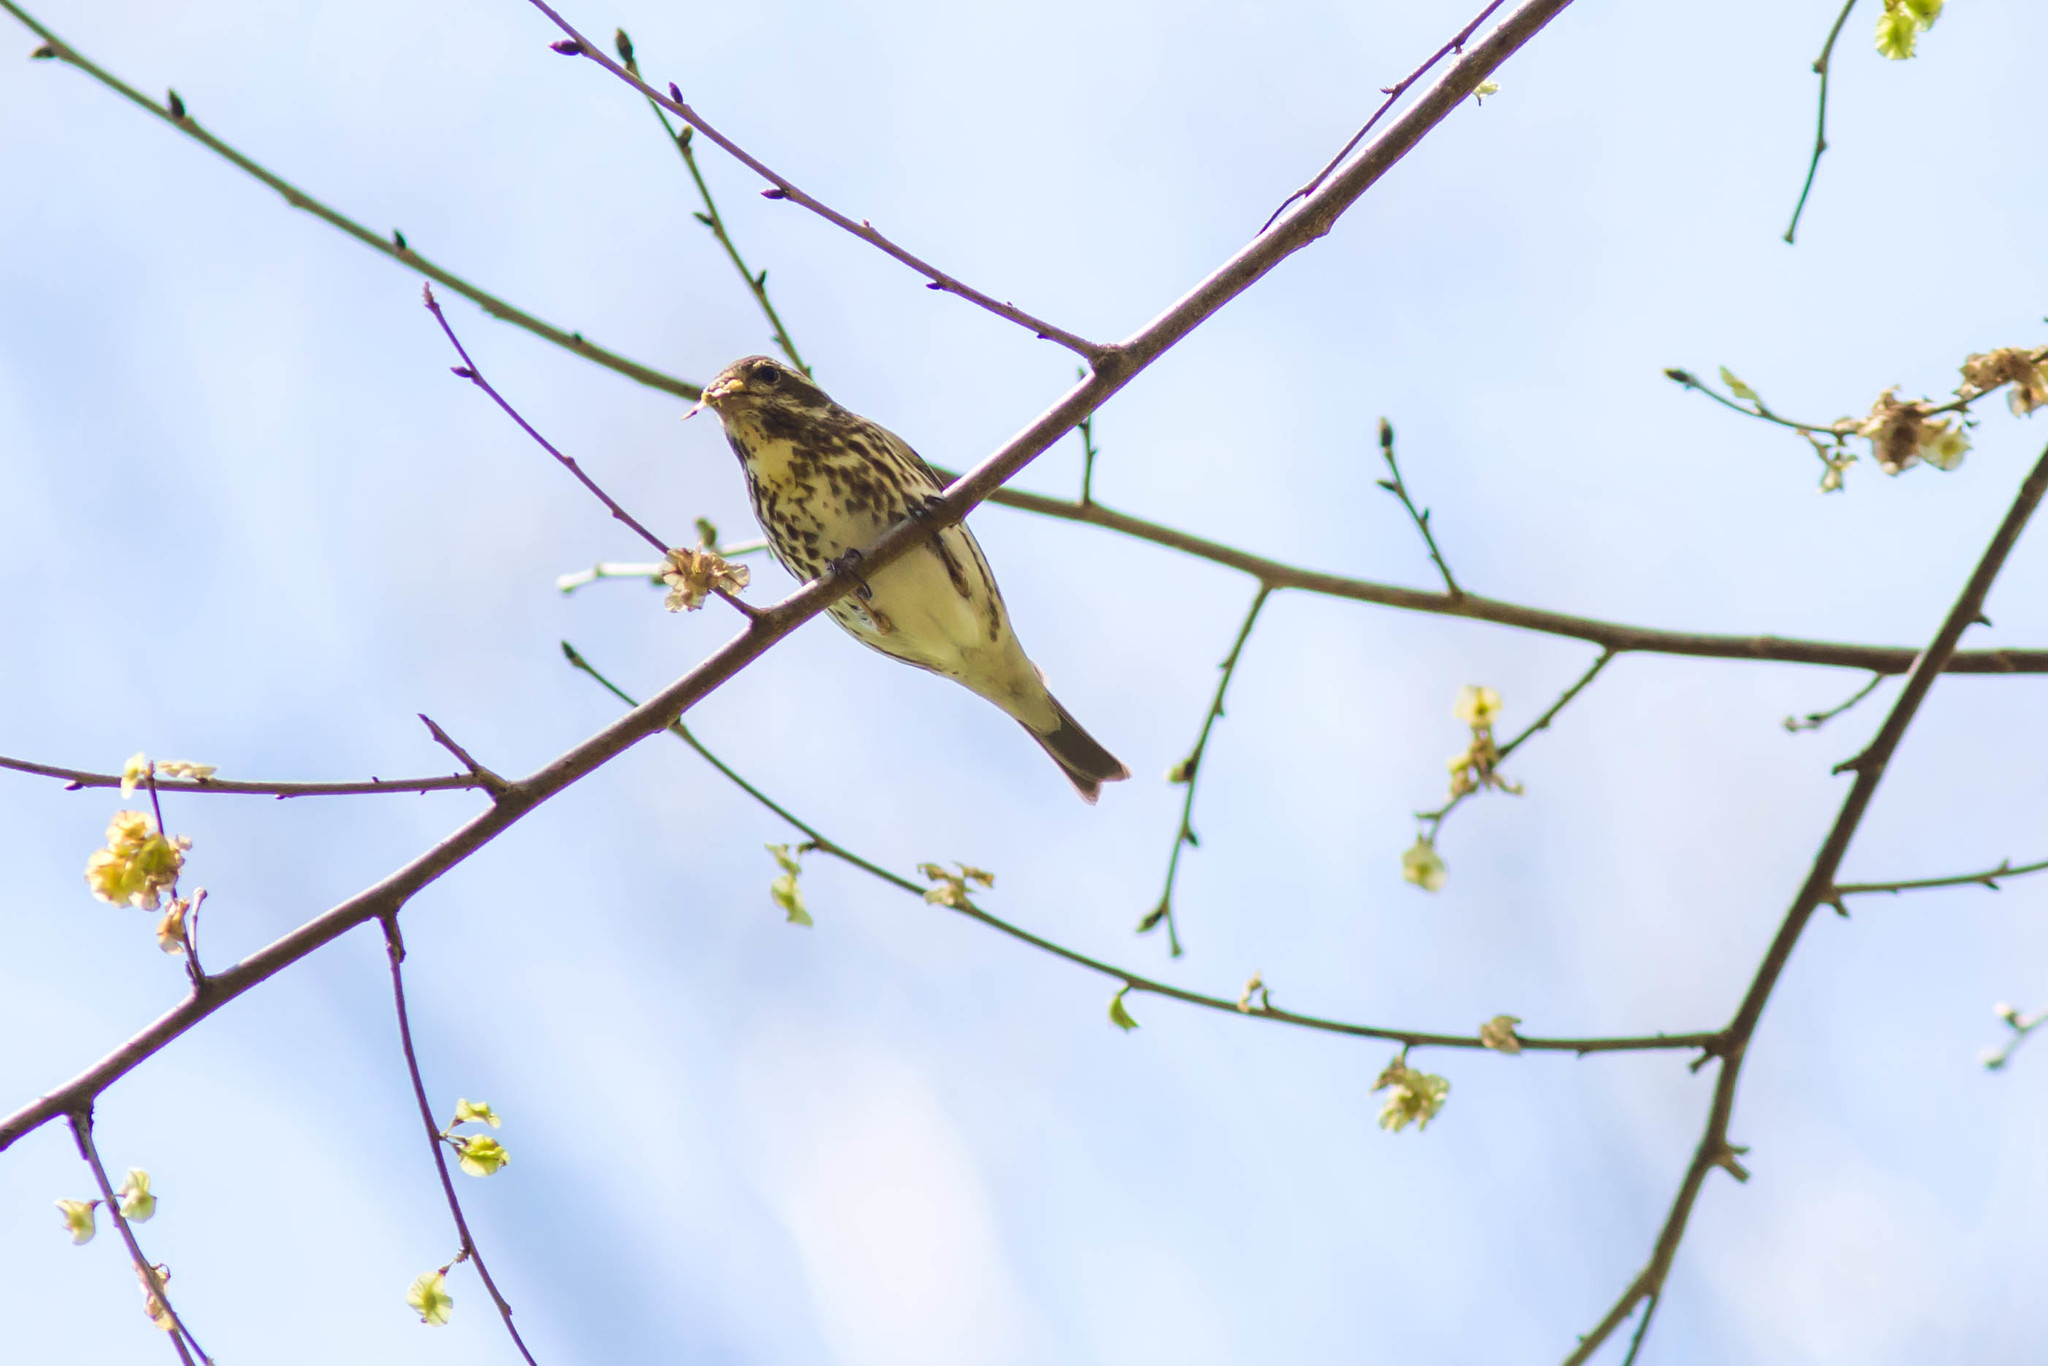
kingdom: Animalia
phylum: Chordata
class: Aves
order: Passeriformes
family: Fringillidae
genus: Haemorhous
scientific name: Haemorhous purpureus
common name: Purple finch
